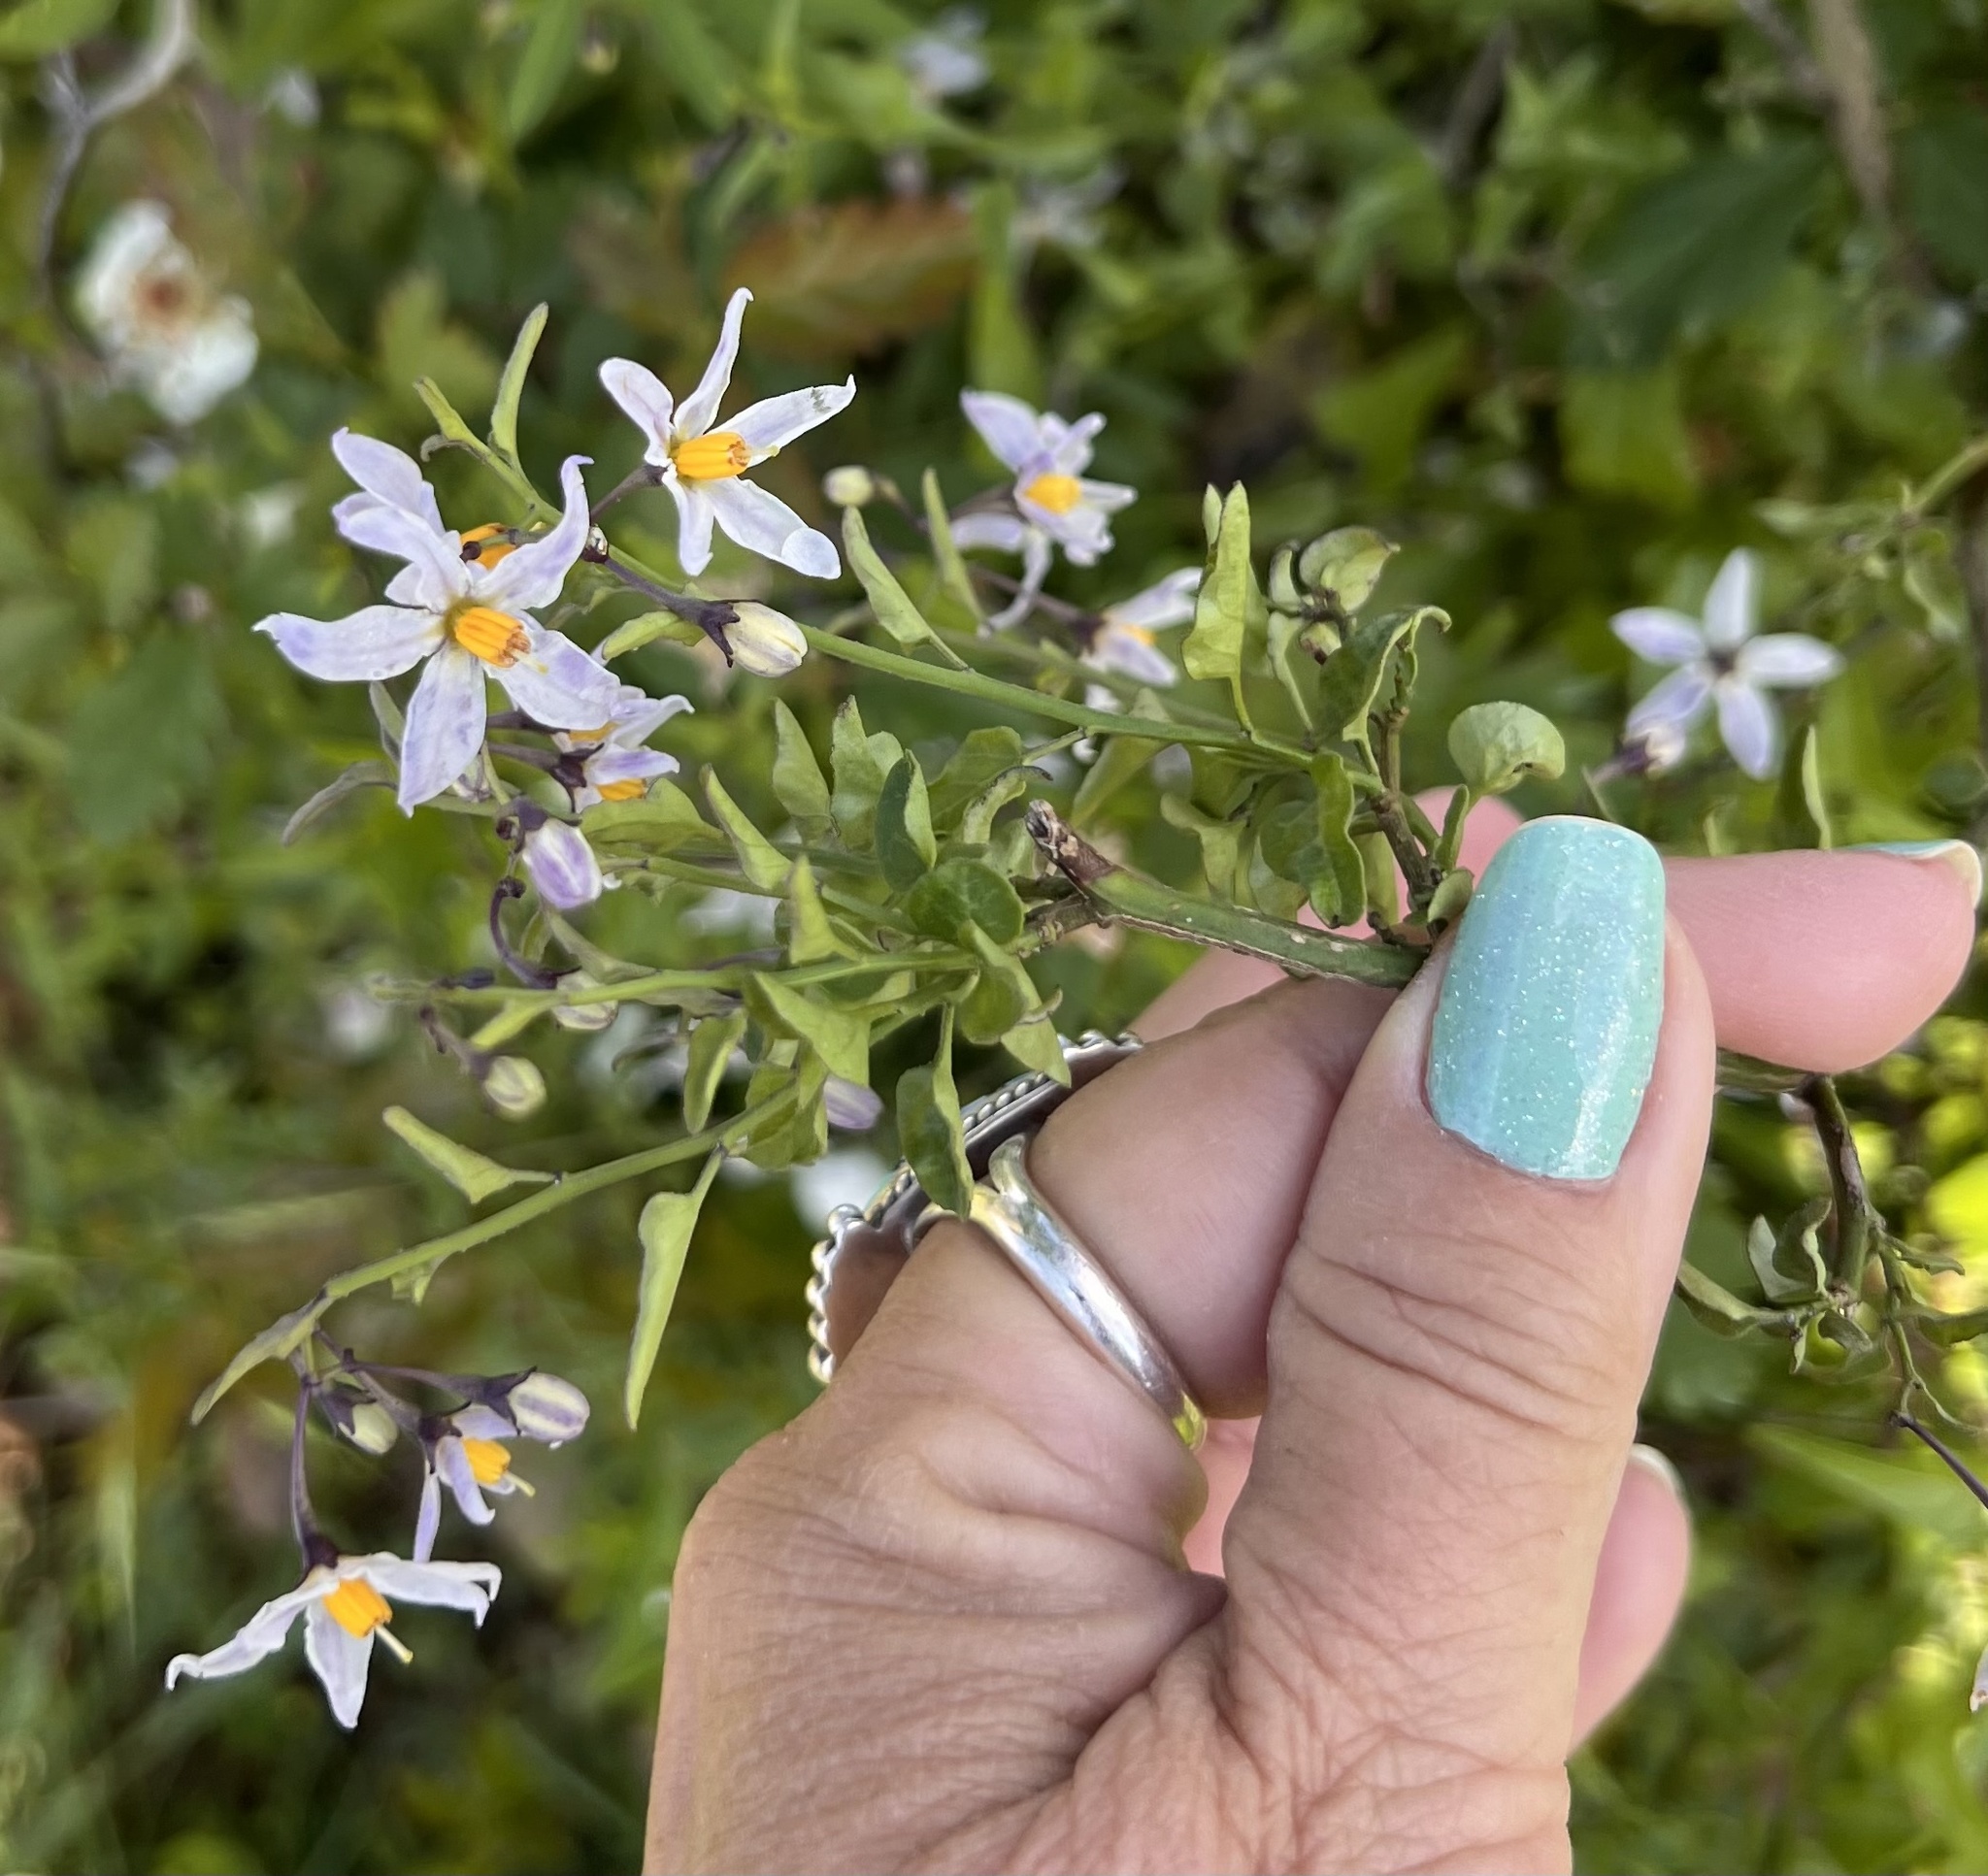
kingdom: Plantae
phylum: Tracheophyta
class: Magnoliopsida
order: Solanales
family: Solanaceae
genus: Solanum
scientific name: Solanum triquetrum
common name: Texas nightshade
